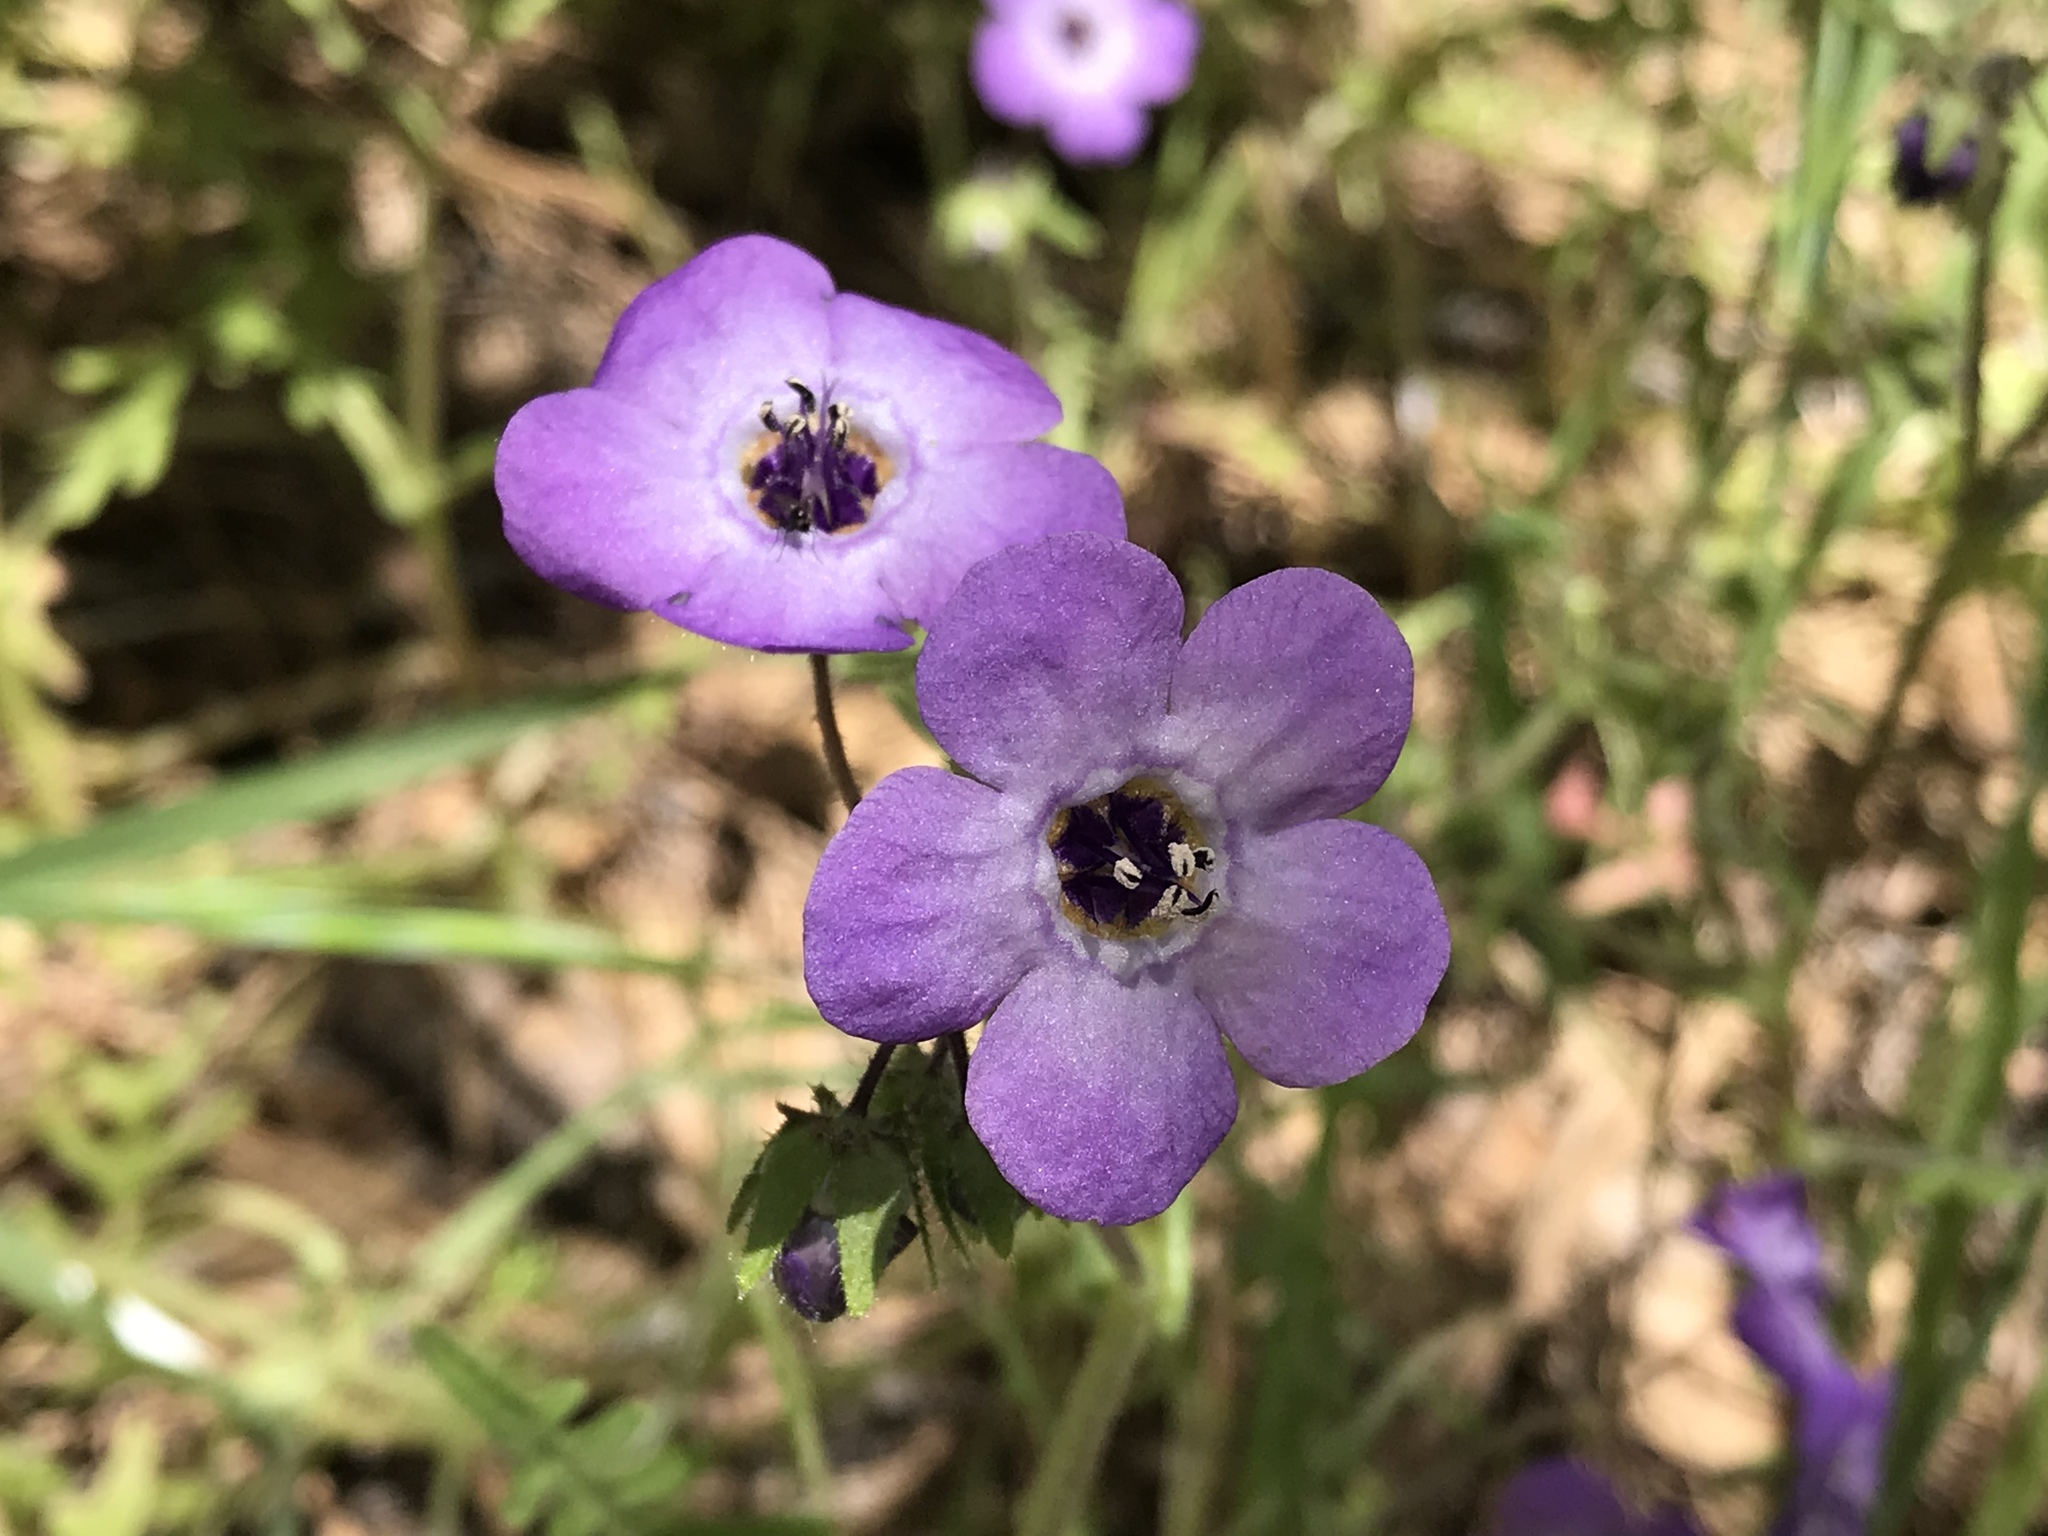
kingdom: Plantae
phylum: Tracheophyta
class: Magnoliopsida
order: Boraginales
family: Hydrophyllaceae
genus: Pholistoma
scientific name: Pholistoma auritum
